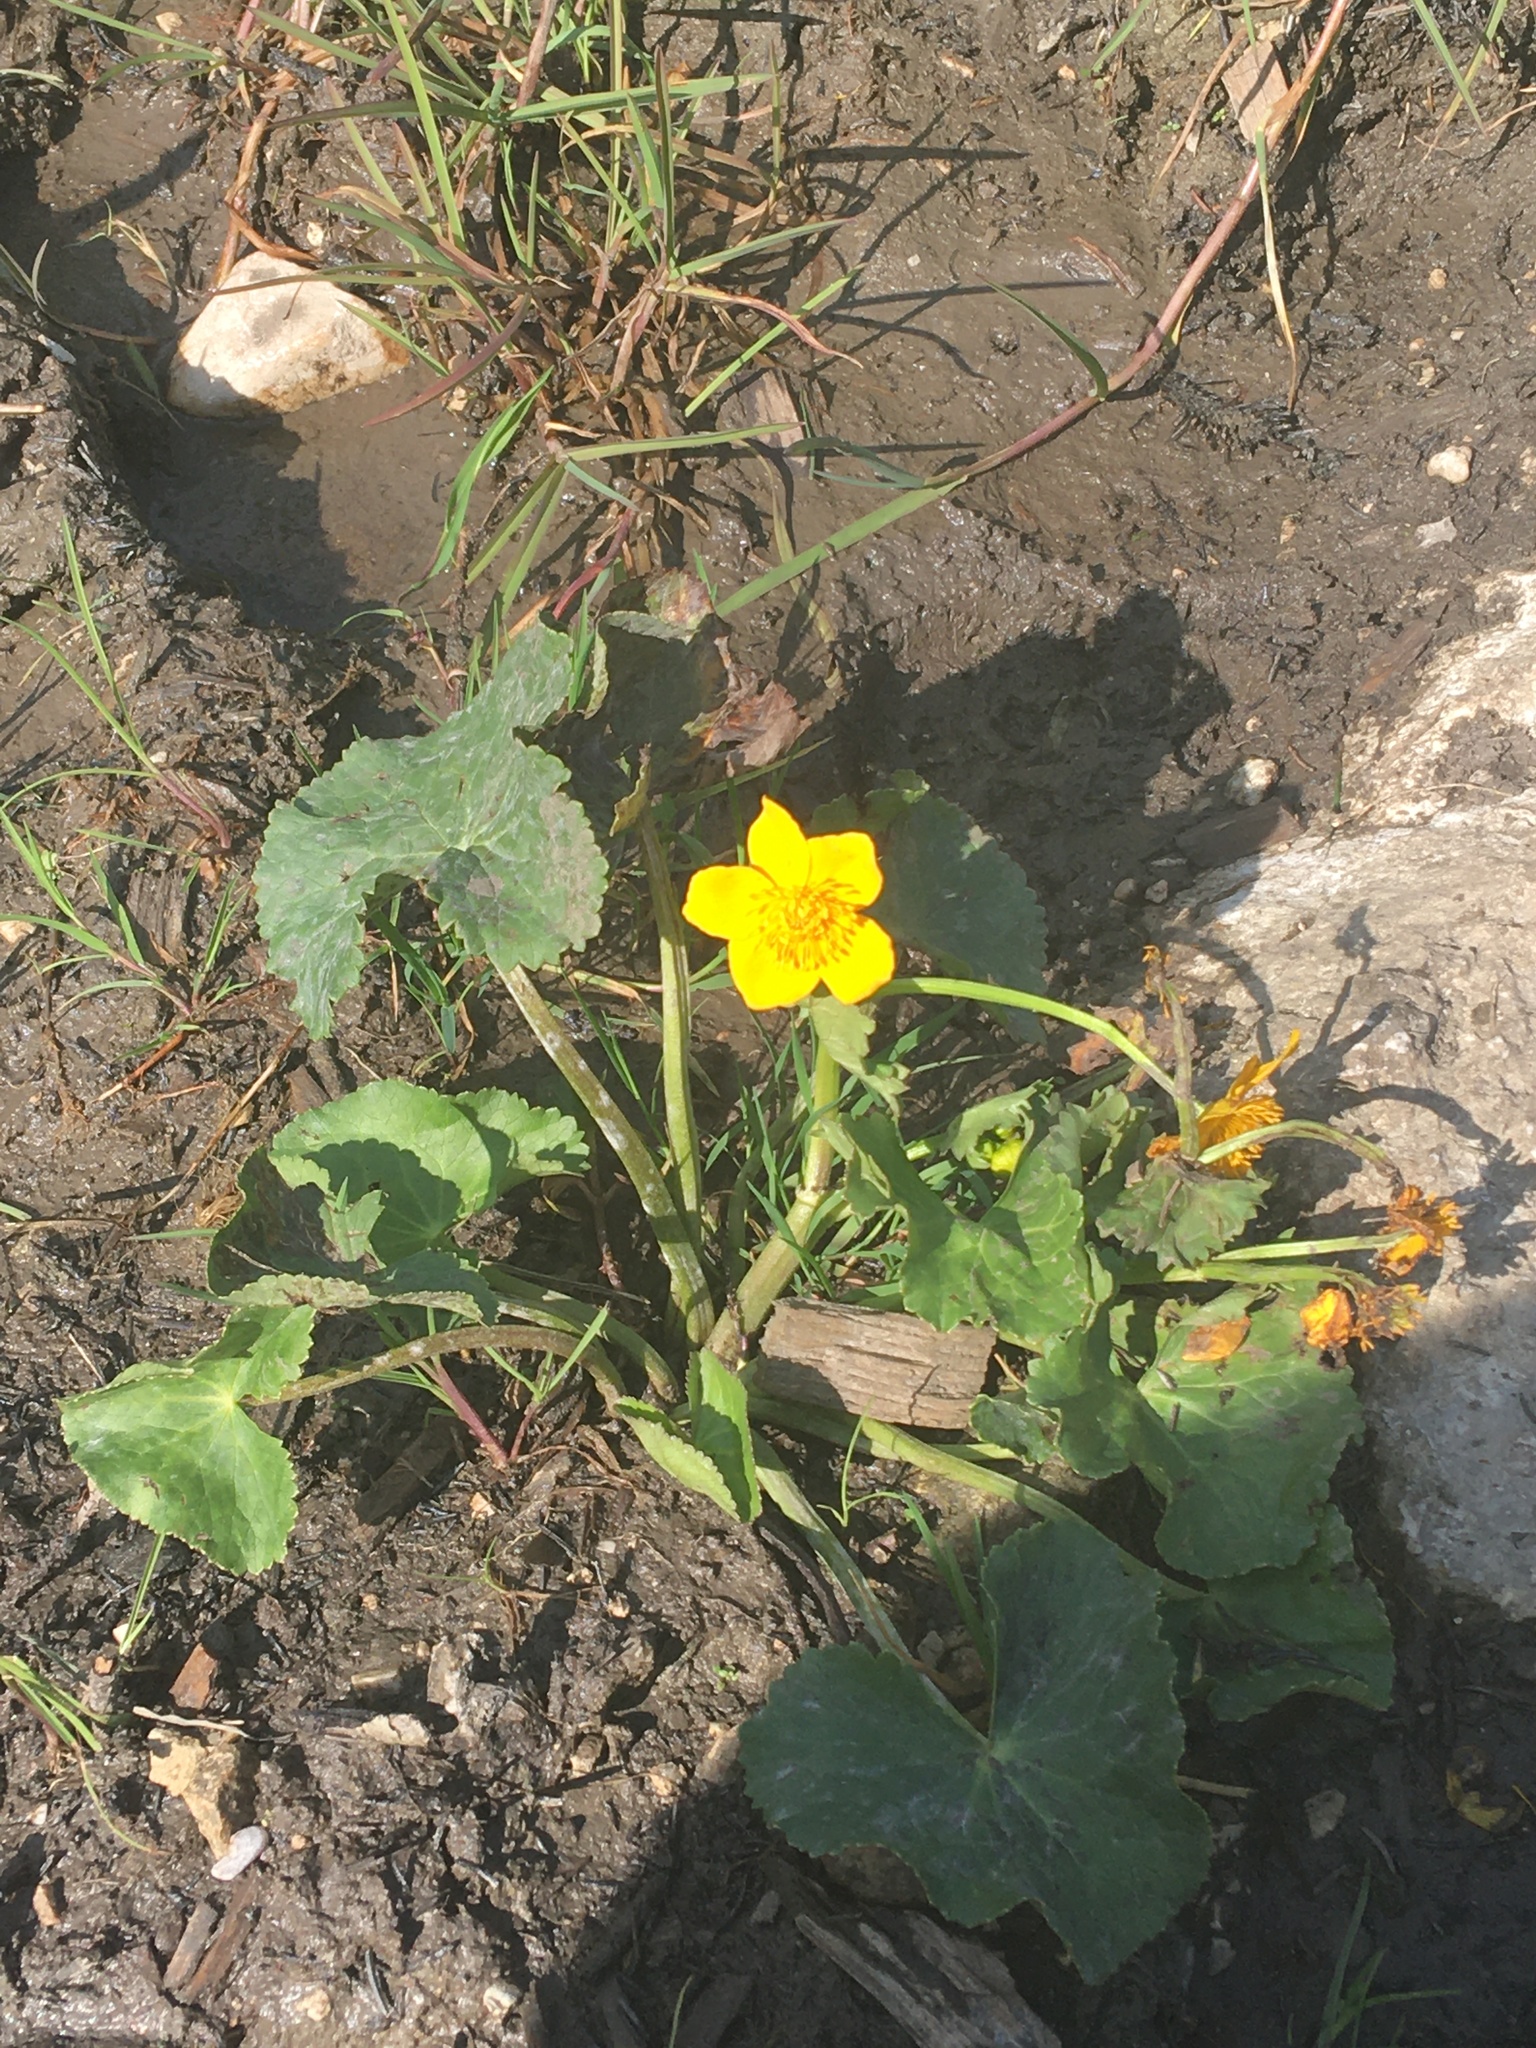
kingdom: Plantae
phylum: Tracheophyta
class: Magnoliopsida
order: Ranunculales
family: Ranunculaceae
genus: Caltha
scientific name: Caltha palustris
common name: Marsh marigold
